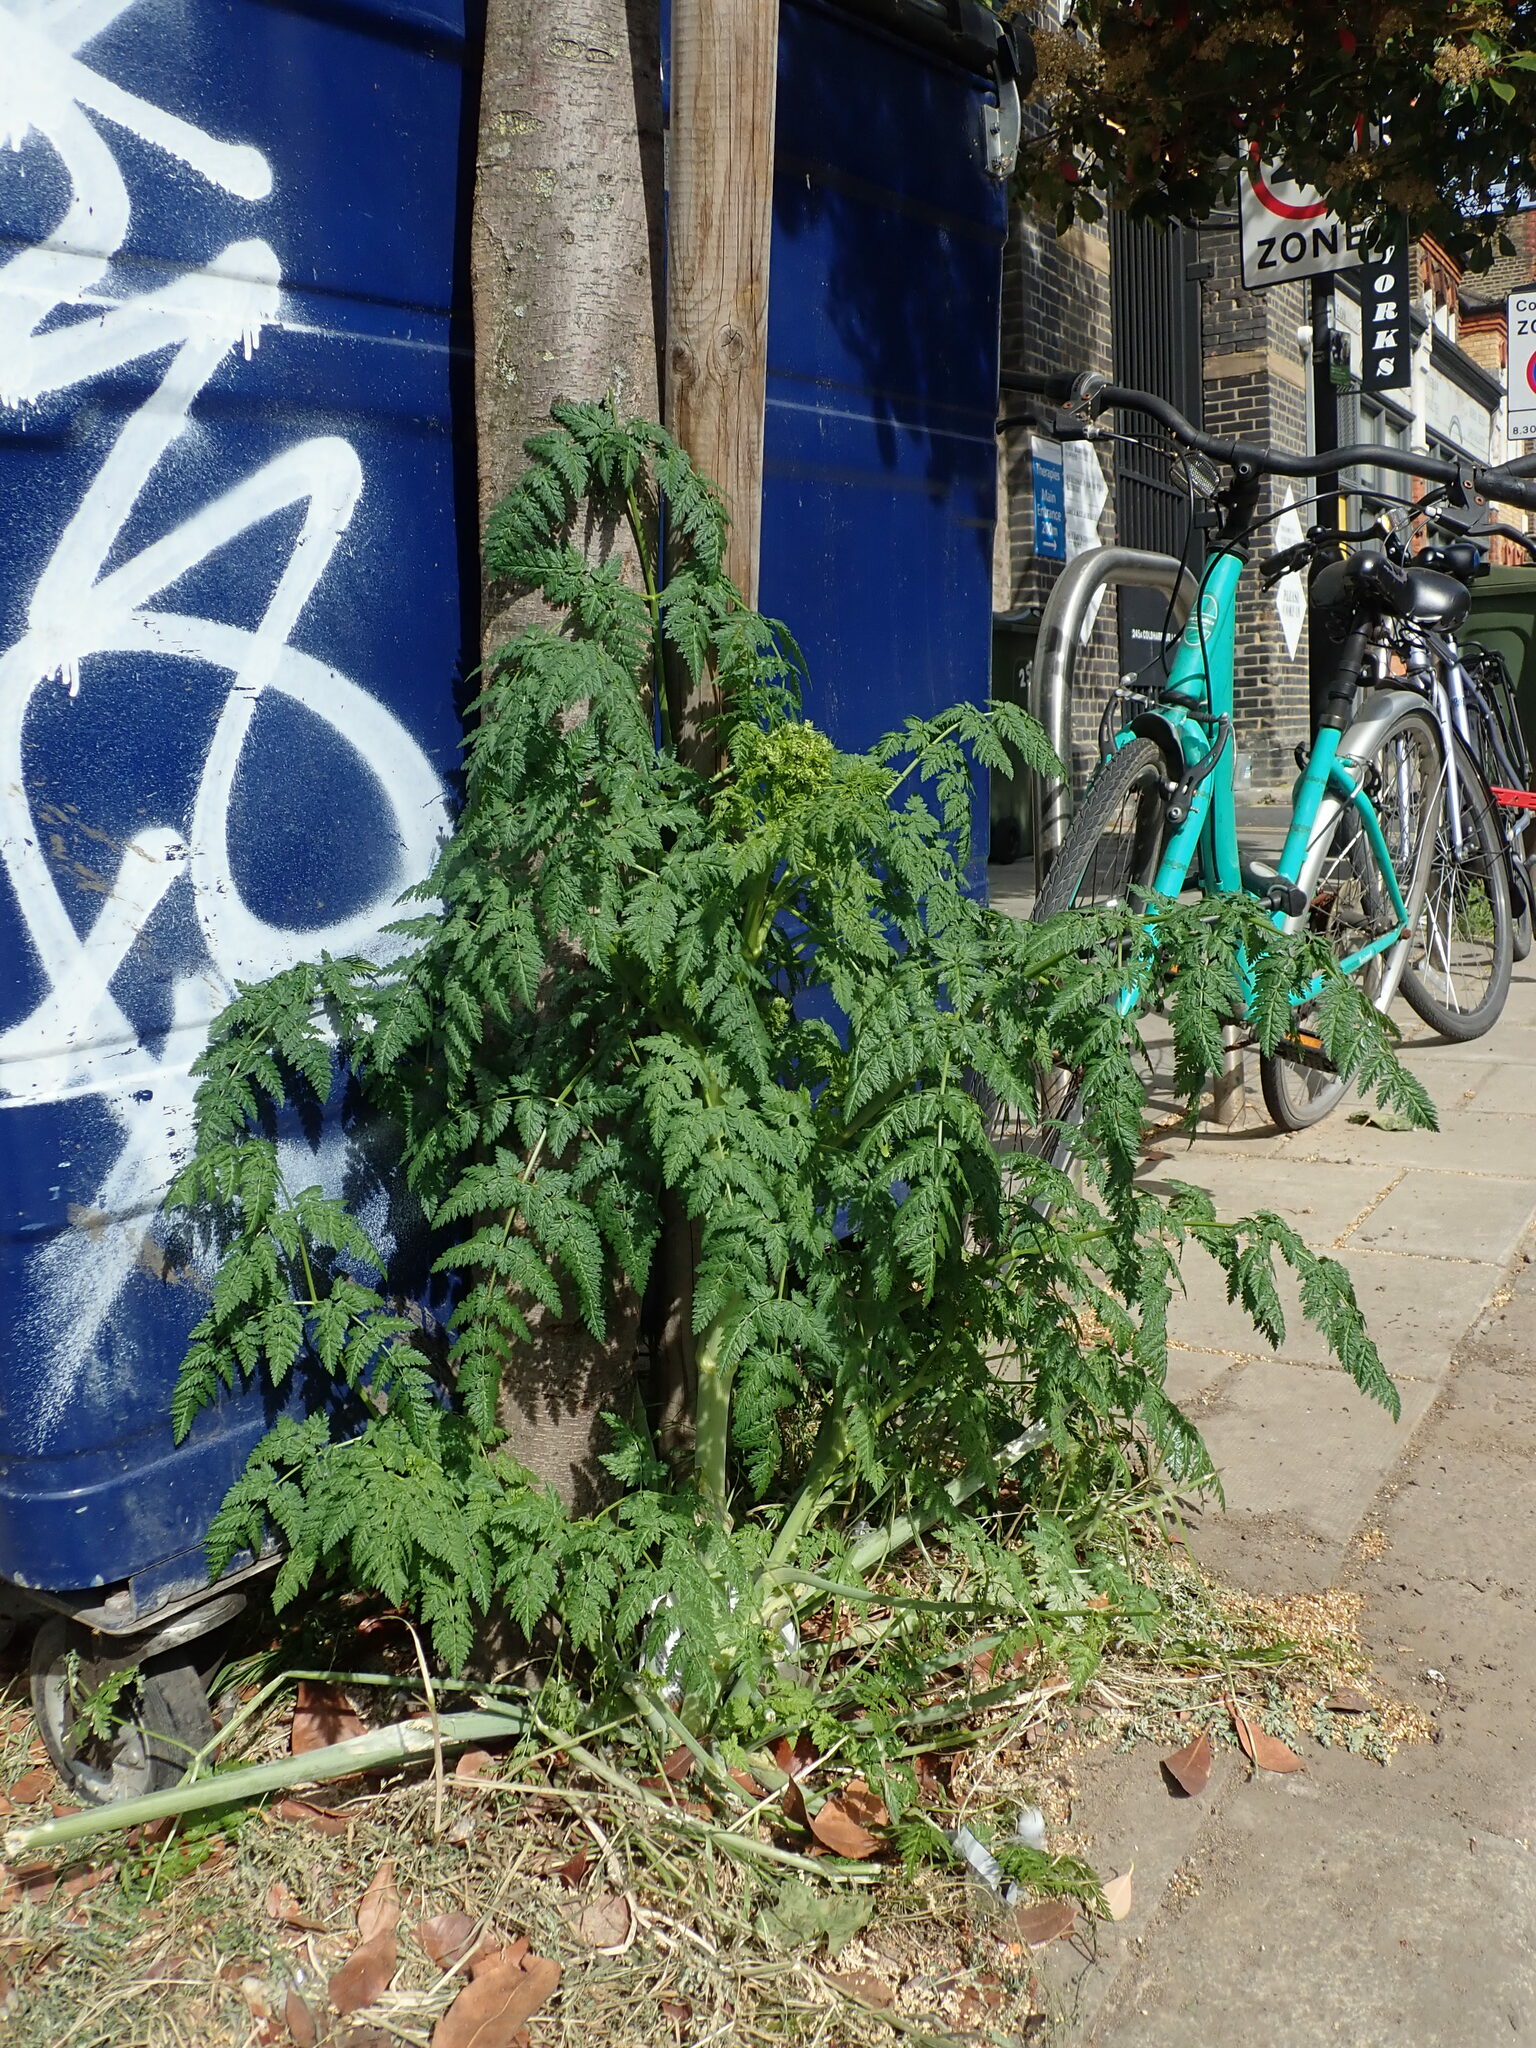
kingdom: Plantae
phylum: Tracheophyta
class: Magnoliopsida
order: Apiales
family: Apiaceae
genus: Conium
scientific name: Conium maculatum
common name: Hemlock
